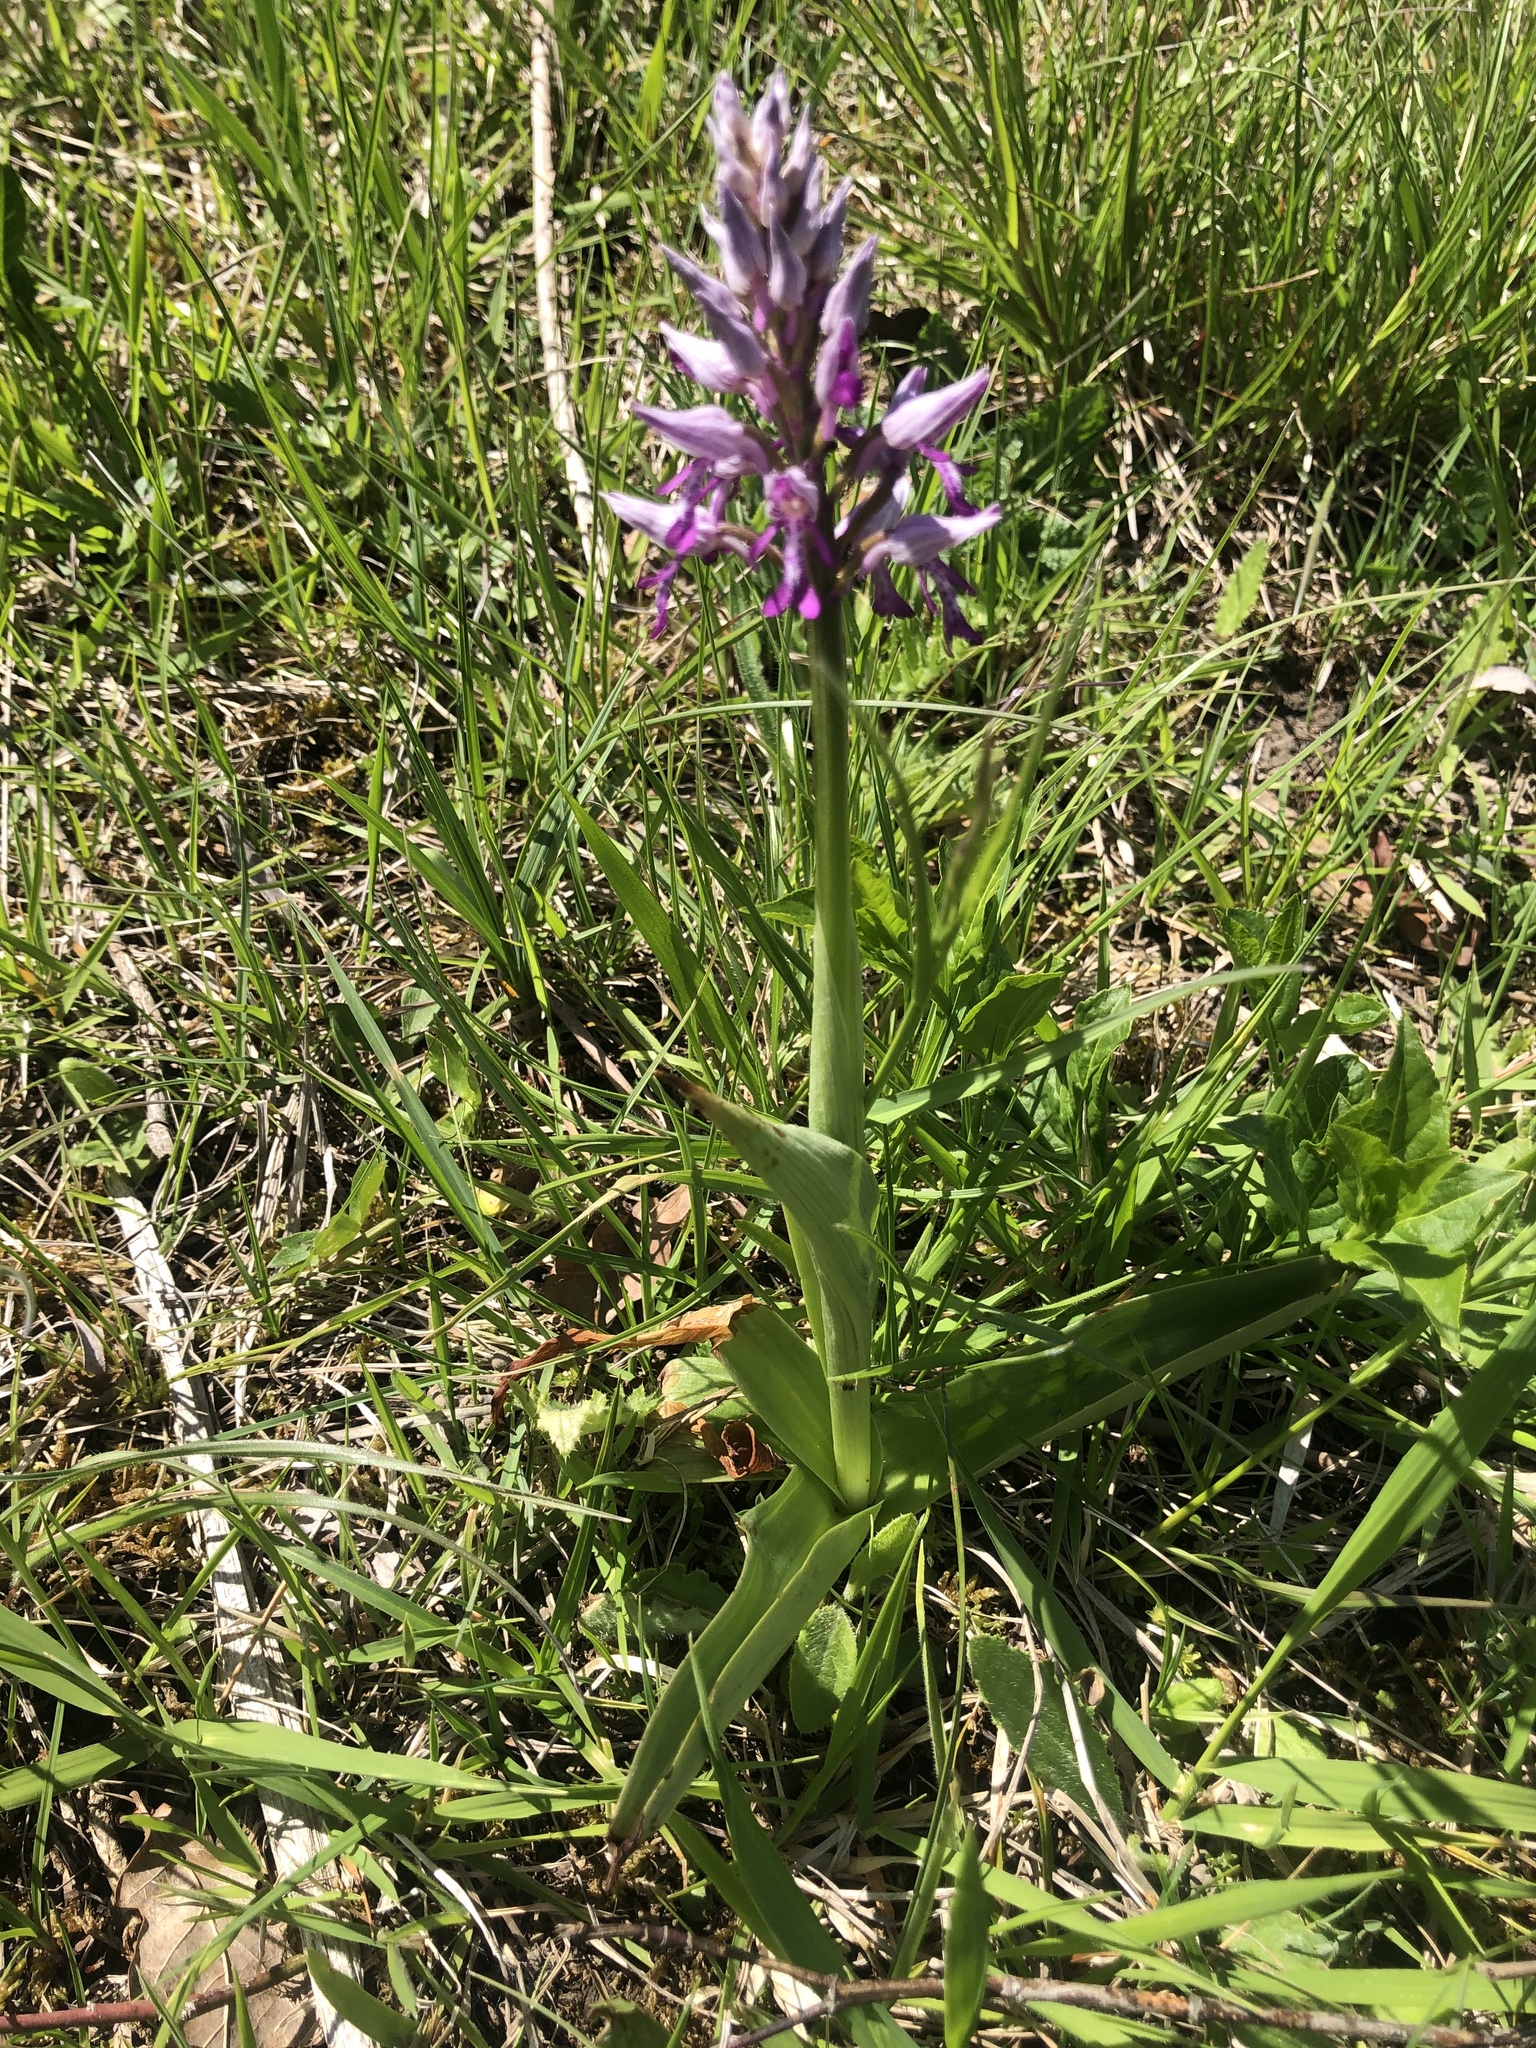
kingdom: Plantae
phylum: Tracheophyta
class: Liliopsida
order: Asparagales
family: Orchidaceae
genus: Orchis
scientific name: Orchis militaris
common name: Military orchid
